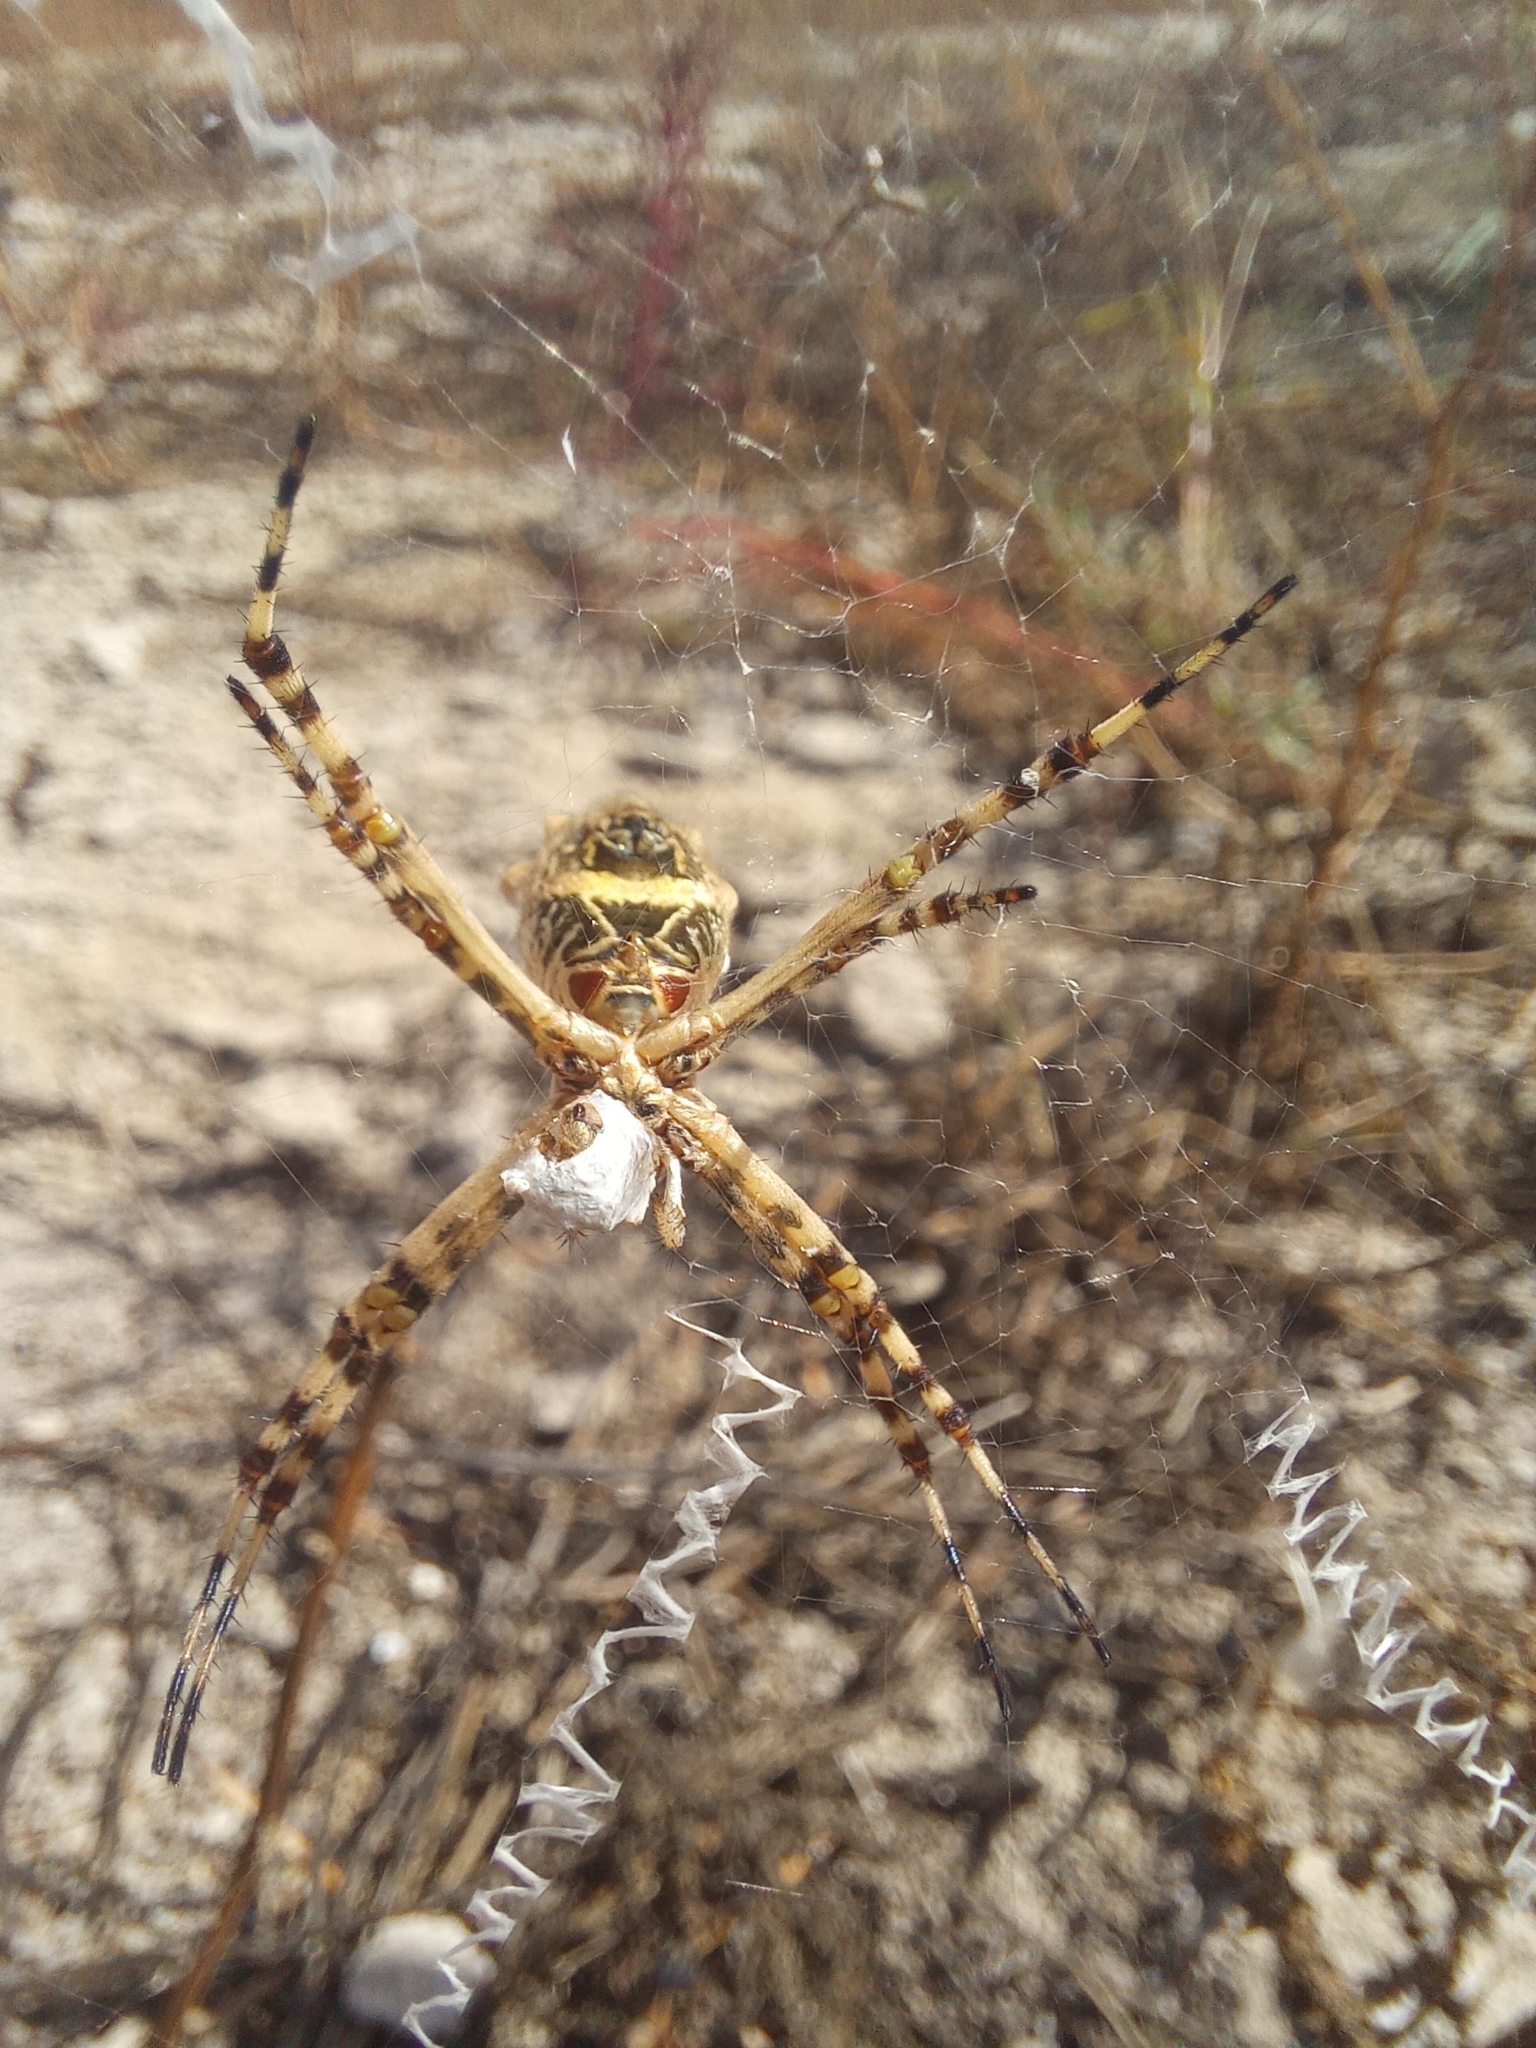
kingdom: Animalia
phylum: Arthropoda
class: Arachnida
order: Araneae
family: Araneidae
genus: Argiope
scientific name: Argiope argentata
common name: Orb weavers
